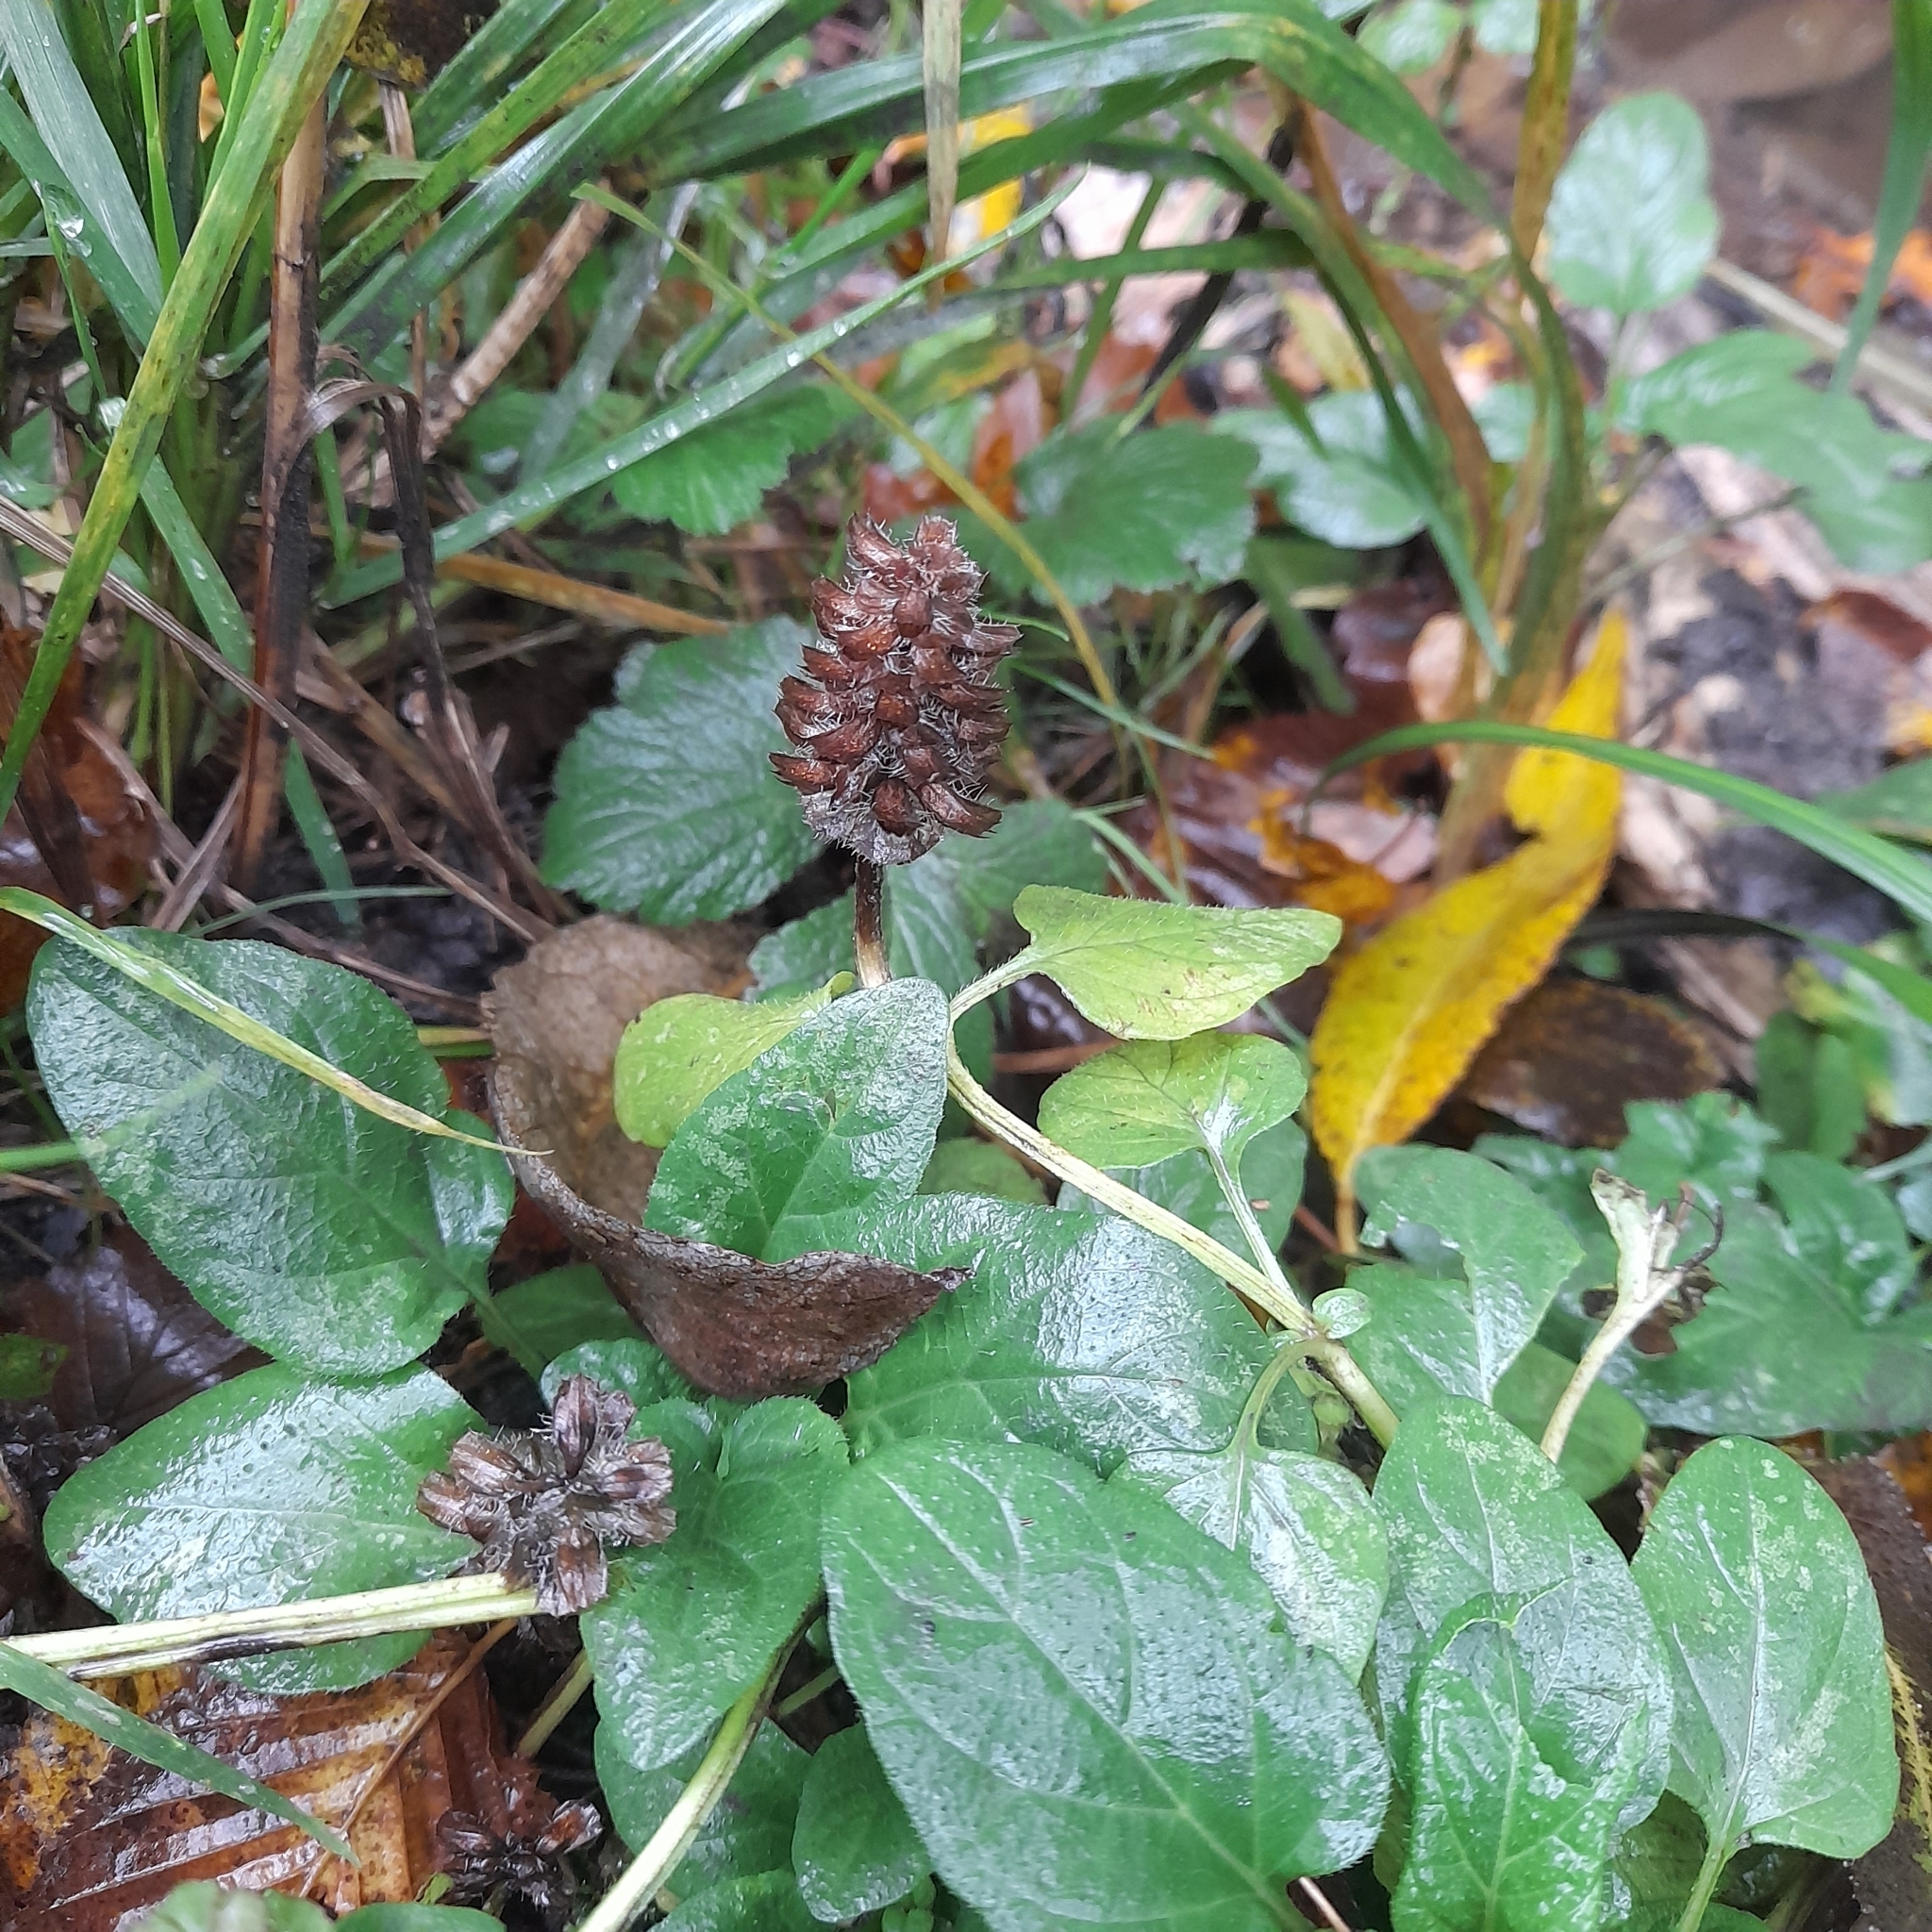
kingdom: Plantae
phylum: Tracheophyta
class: Magnoliopsida
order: Lamiales
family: Lamiaceae
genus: Prunella
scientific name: Prunella vulgaris
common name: Heal-all
